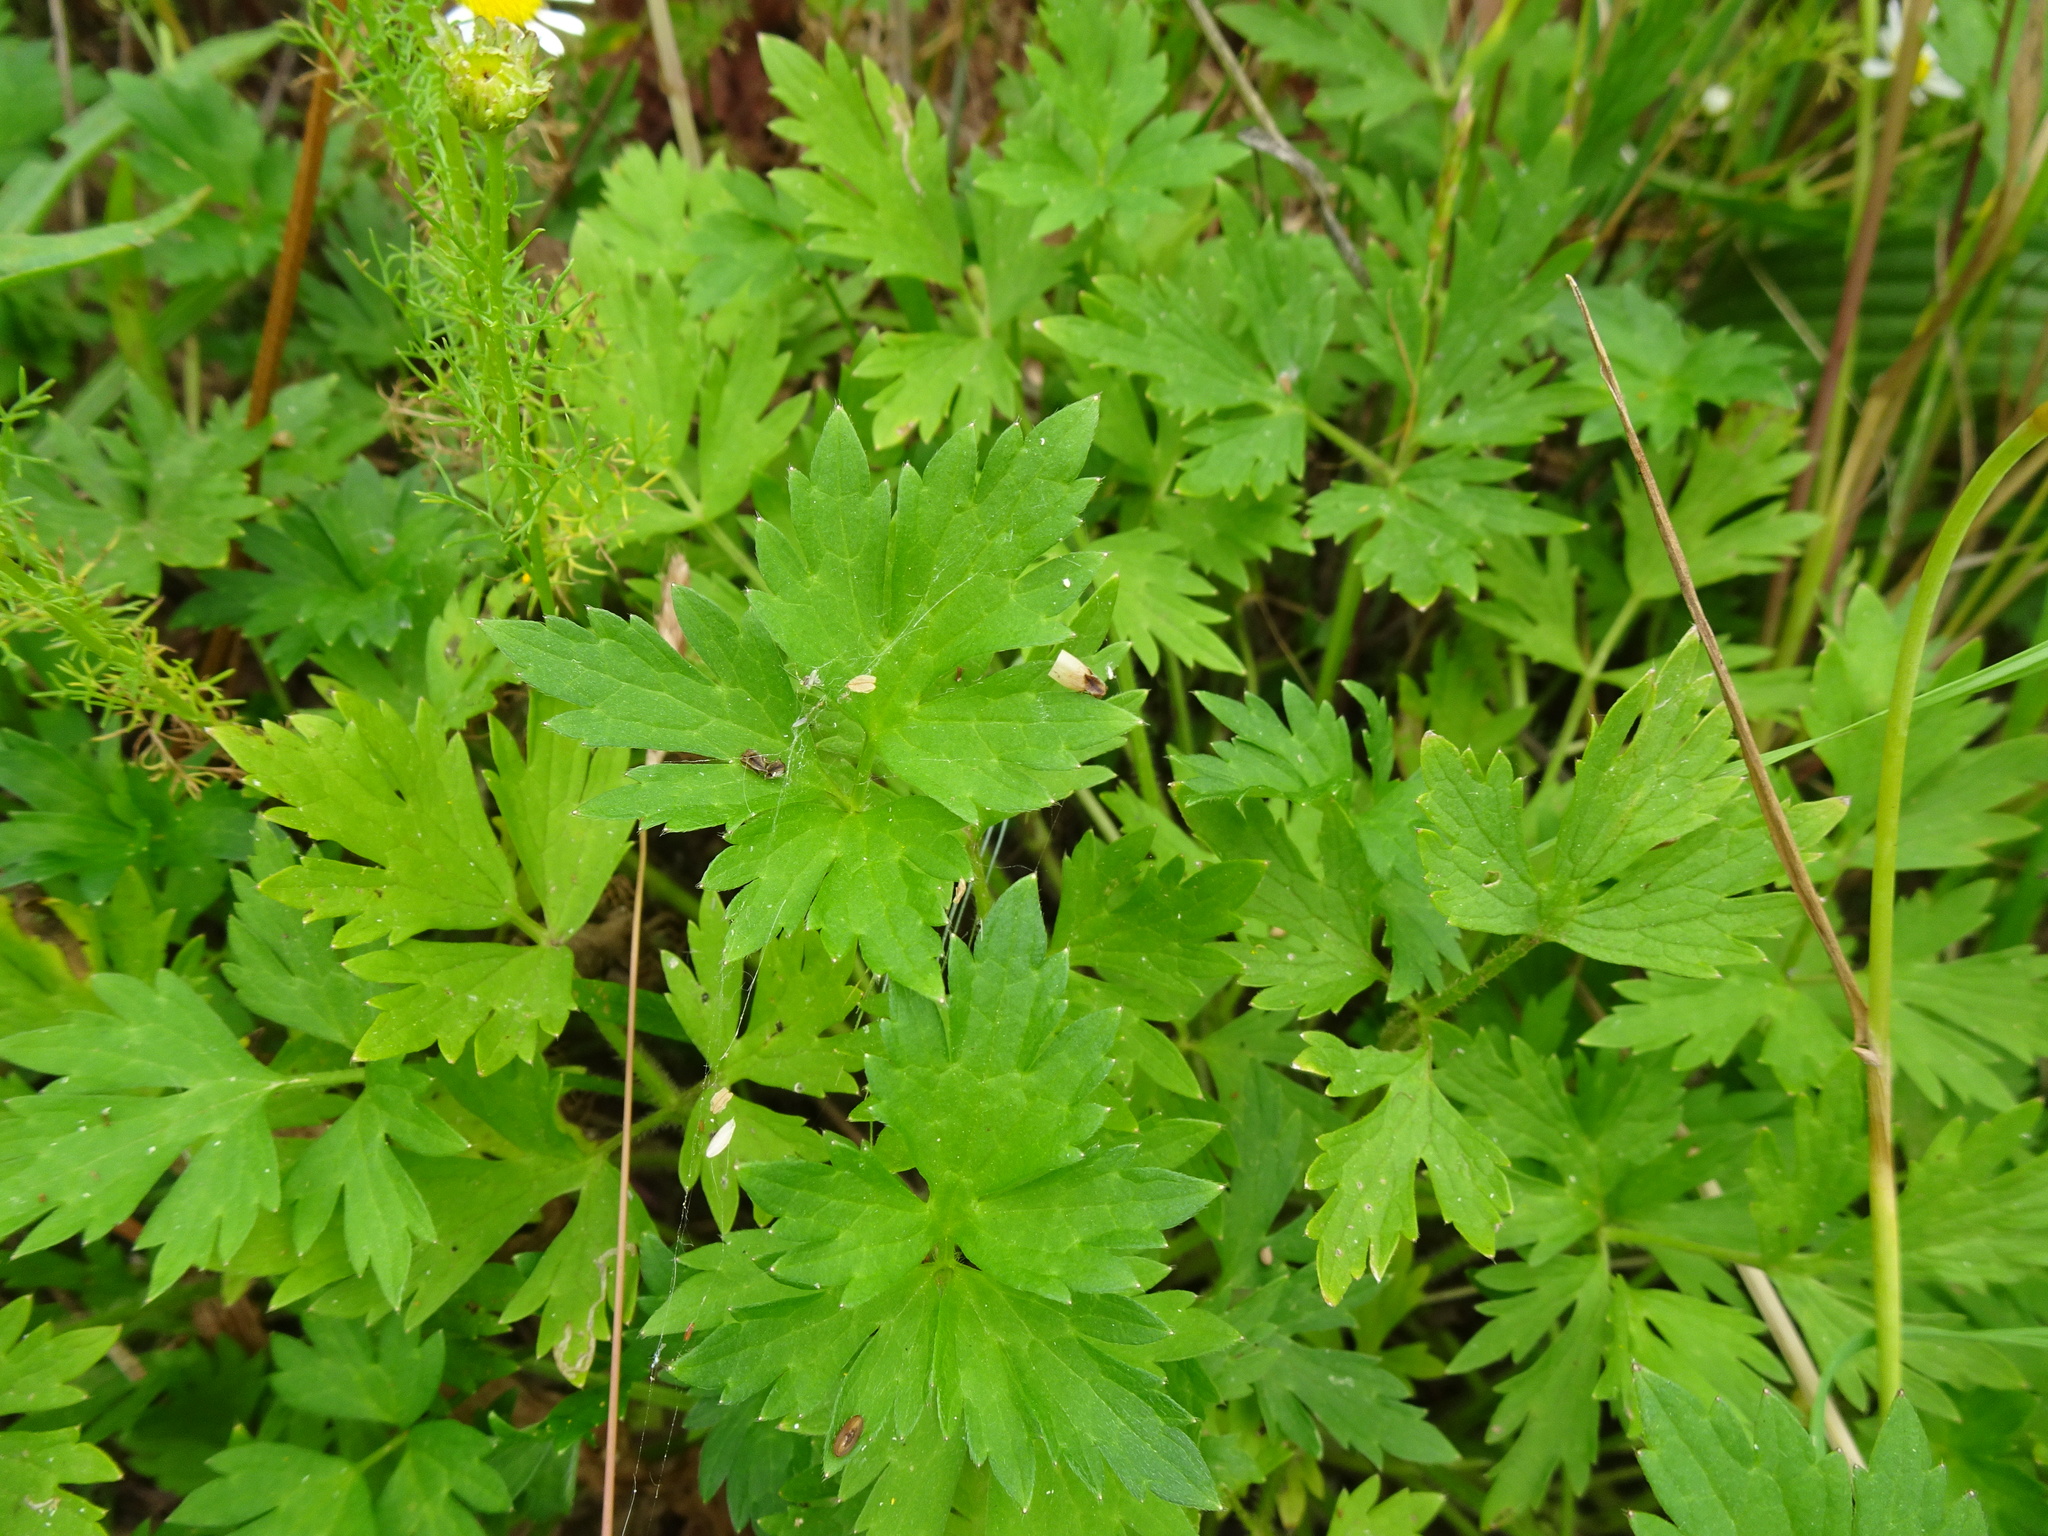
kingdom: Plantae
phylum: Tracheophyta
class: Magnoliopsida
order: Ranunculales
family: Ranunculaceae
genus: Ranunculus
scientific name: Ranunculus repens
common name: Creeping buttercup
